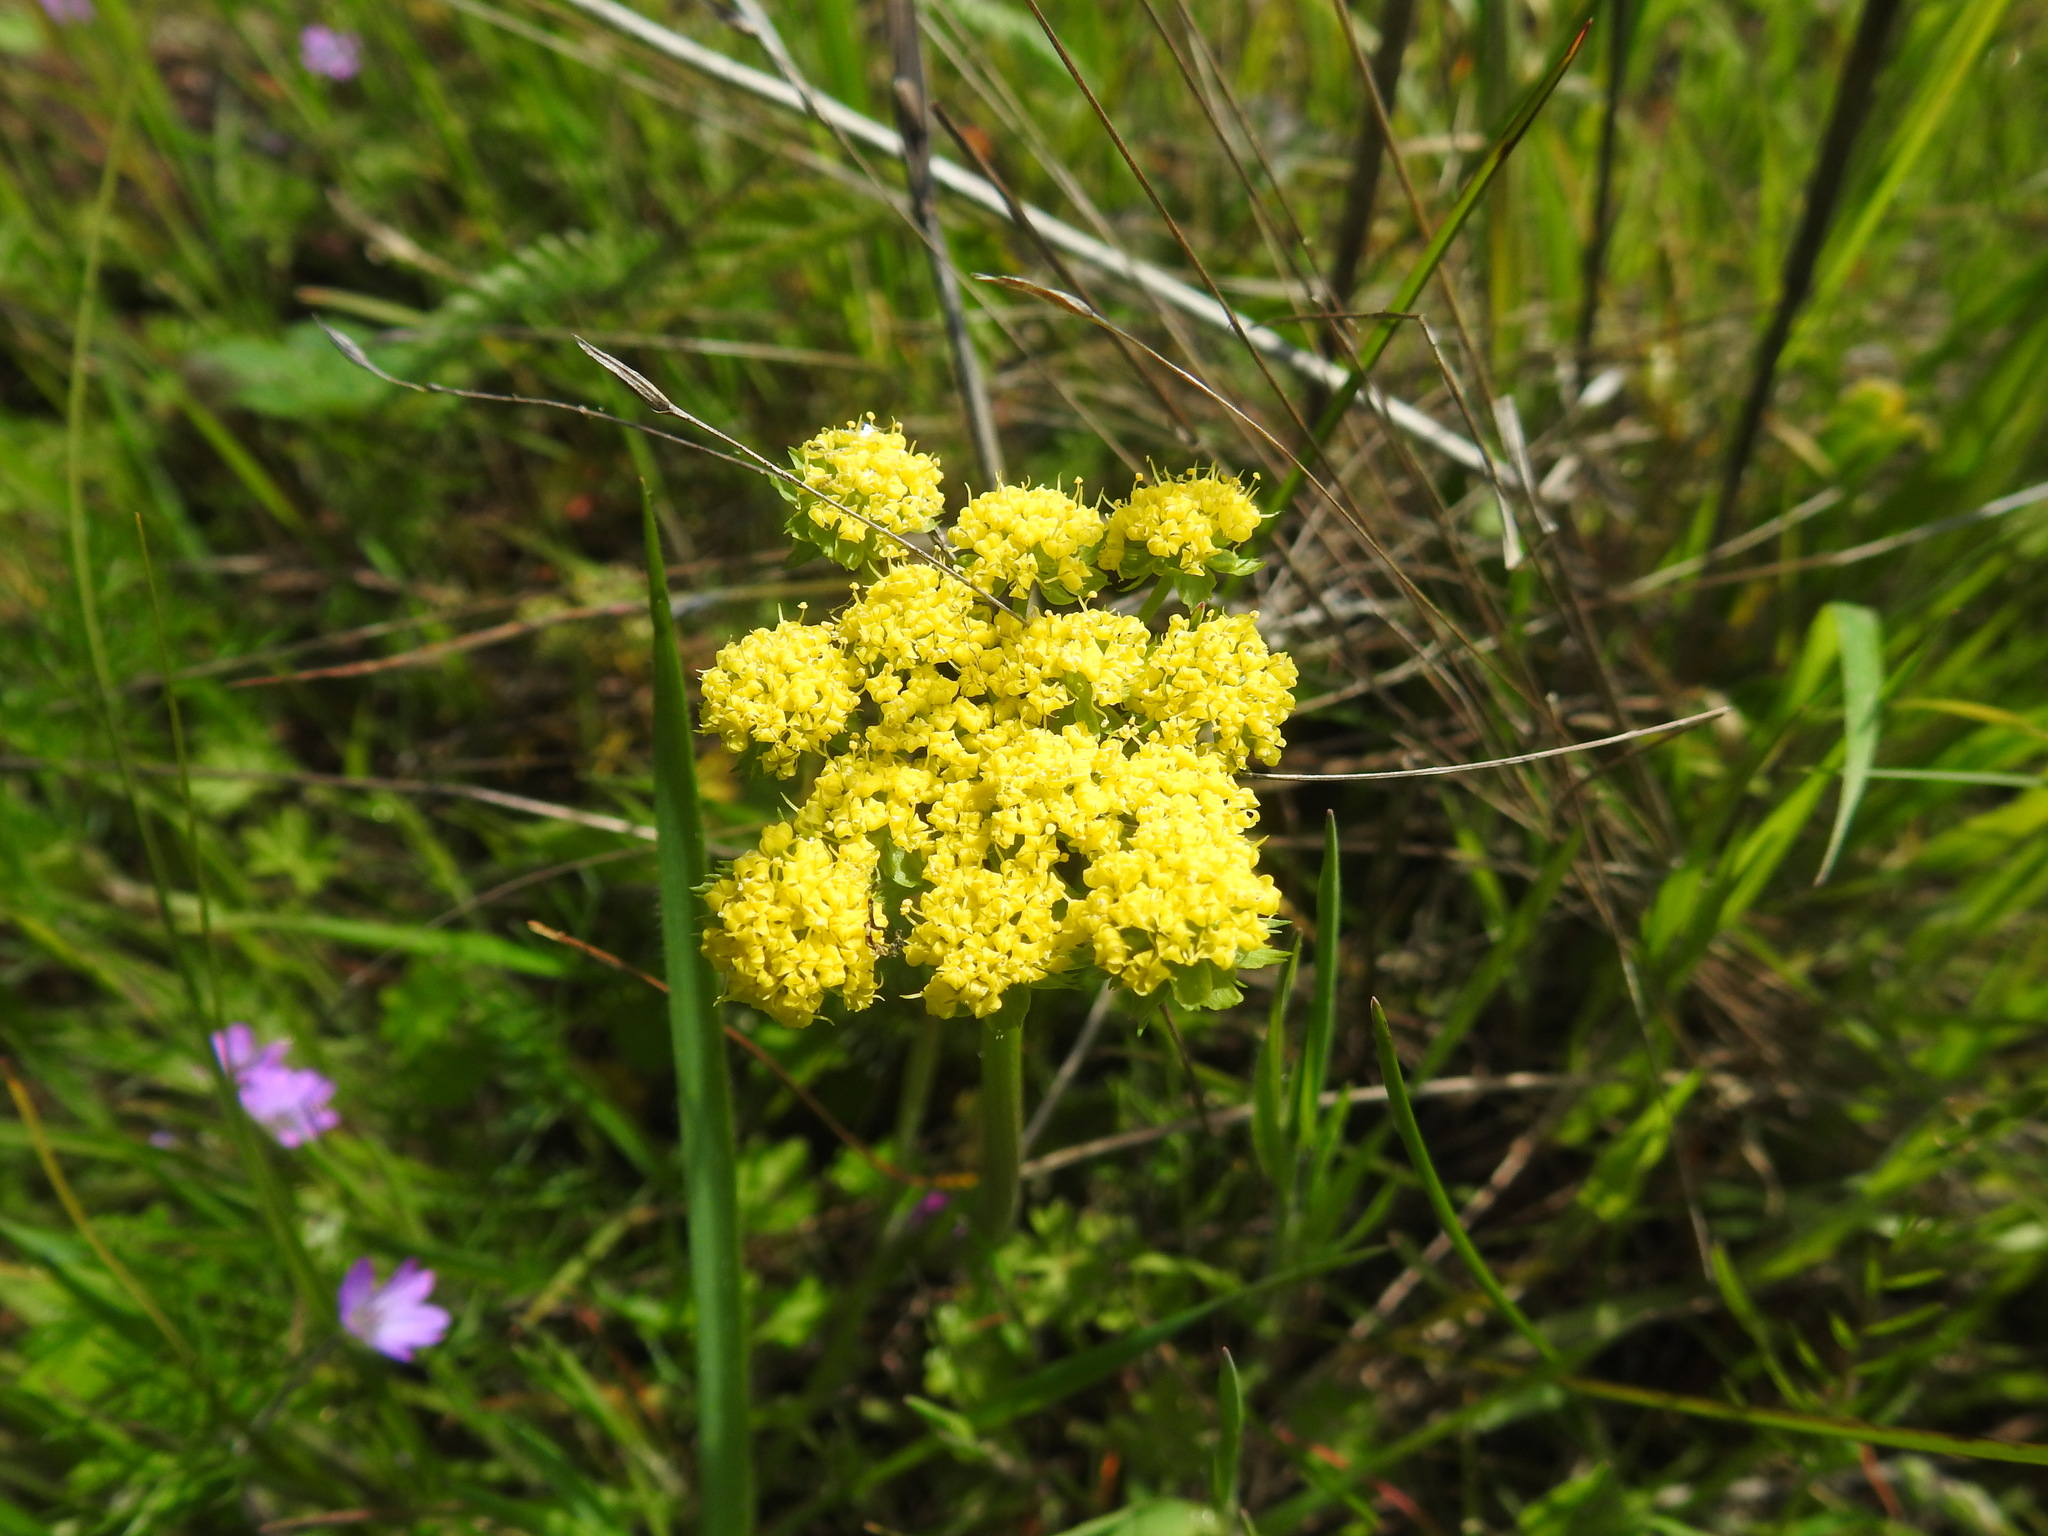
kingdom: Plantae
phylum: Tracheophyta
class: Magnoliopsida
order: Apiales
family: Apiaceae
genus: Lomatium
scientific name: Lomatium utriculatum
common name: Fine-leaf desert-parsley
